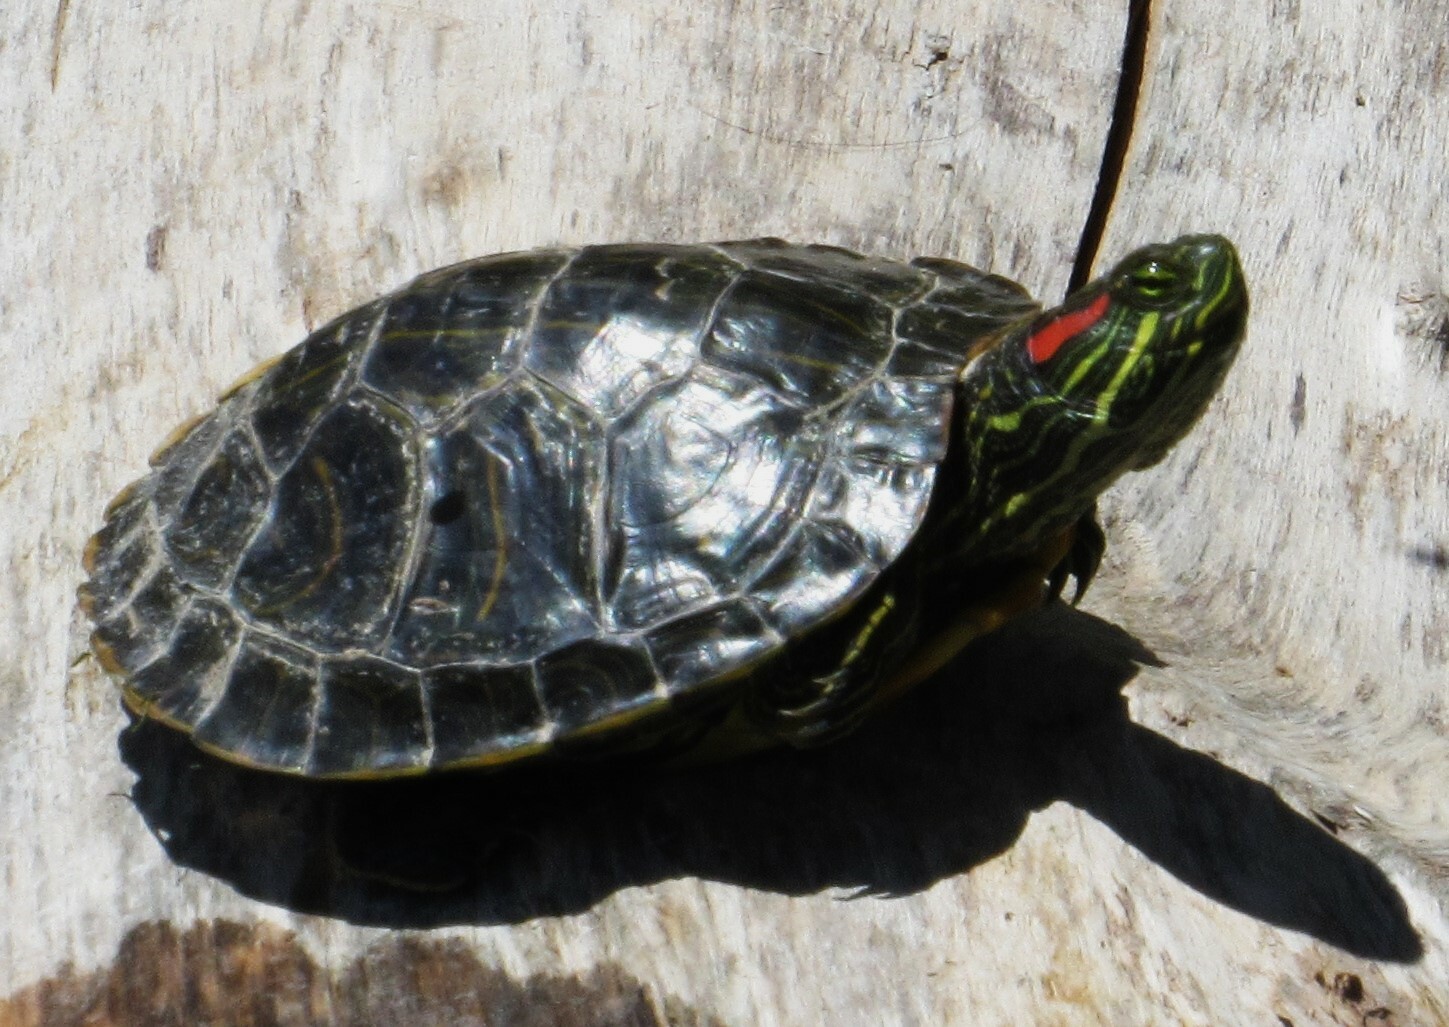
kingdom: Animalia
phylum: Chordata
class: Testudines
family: Emydidae
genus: Trachemys
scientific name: Trachemys scripta
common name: Slider
